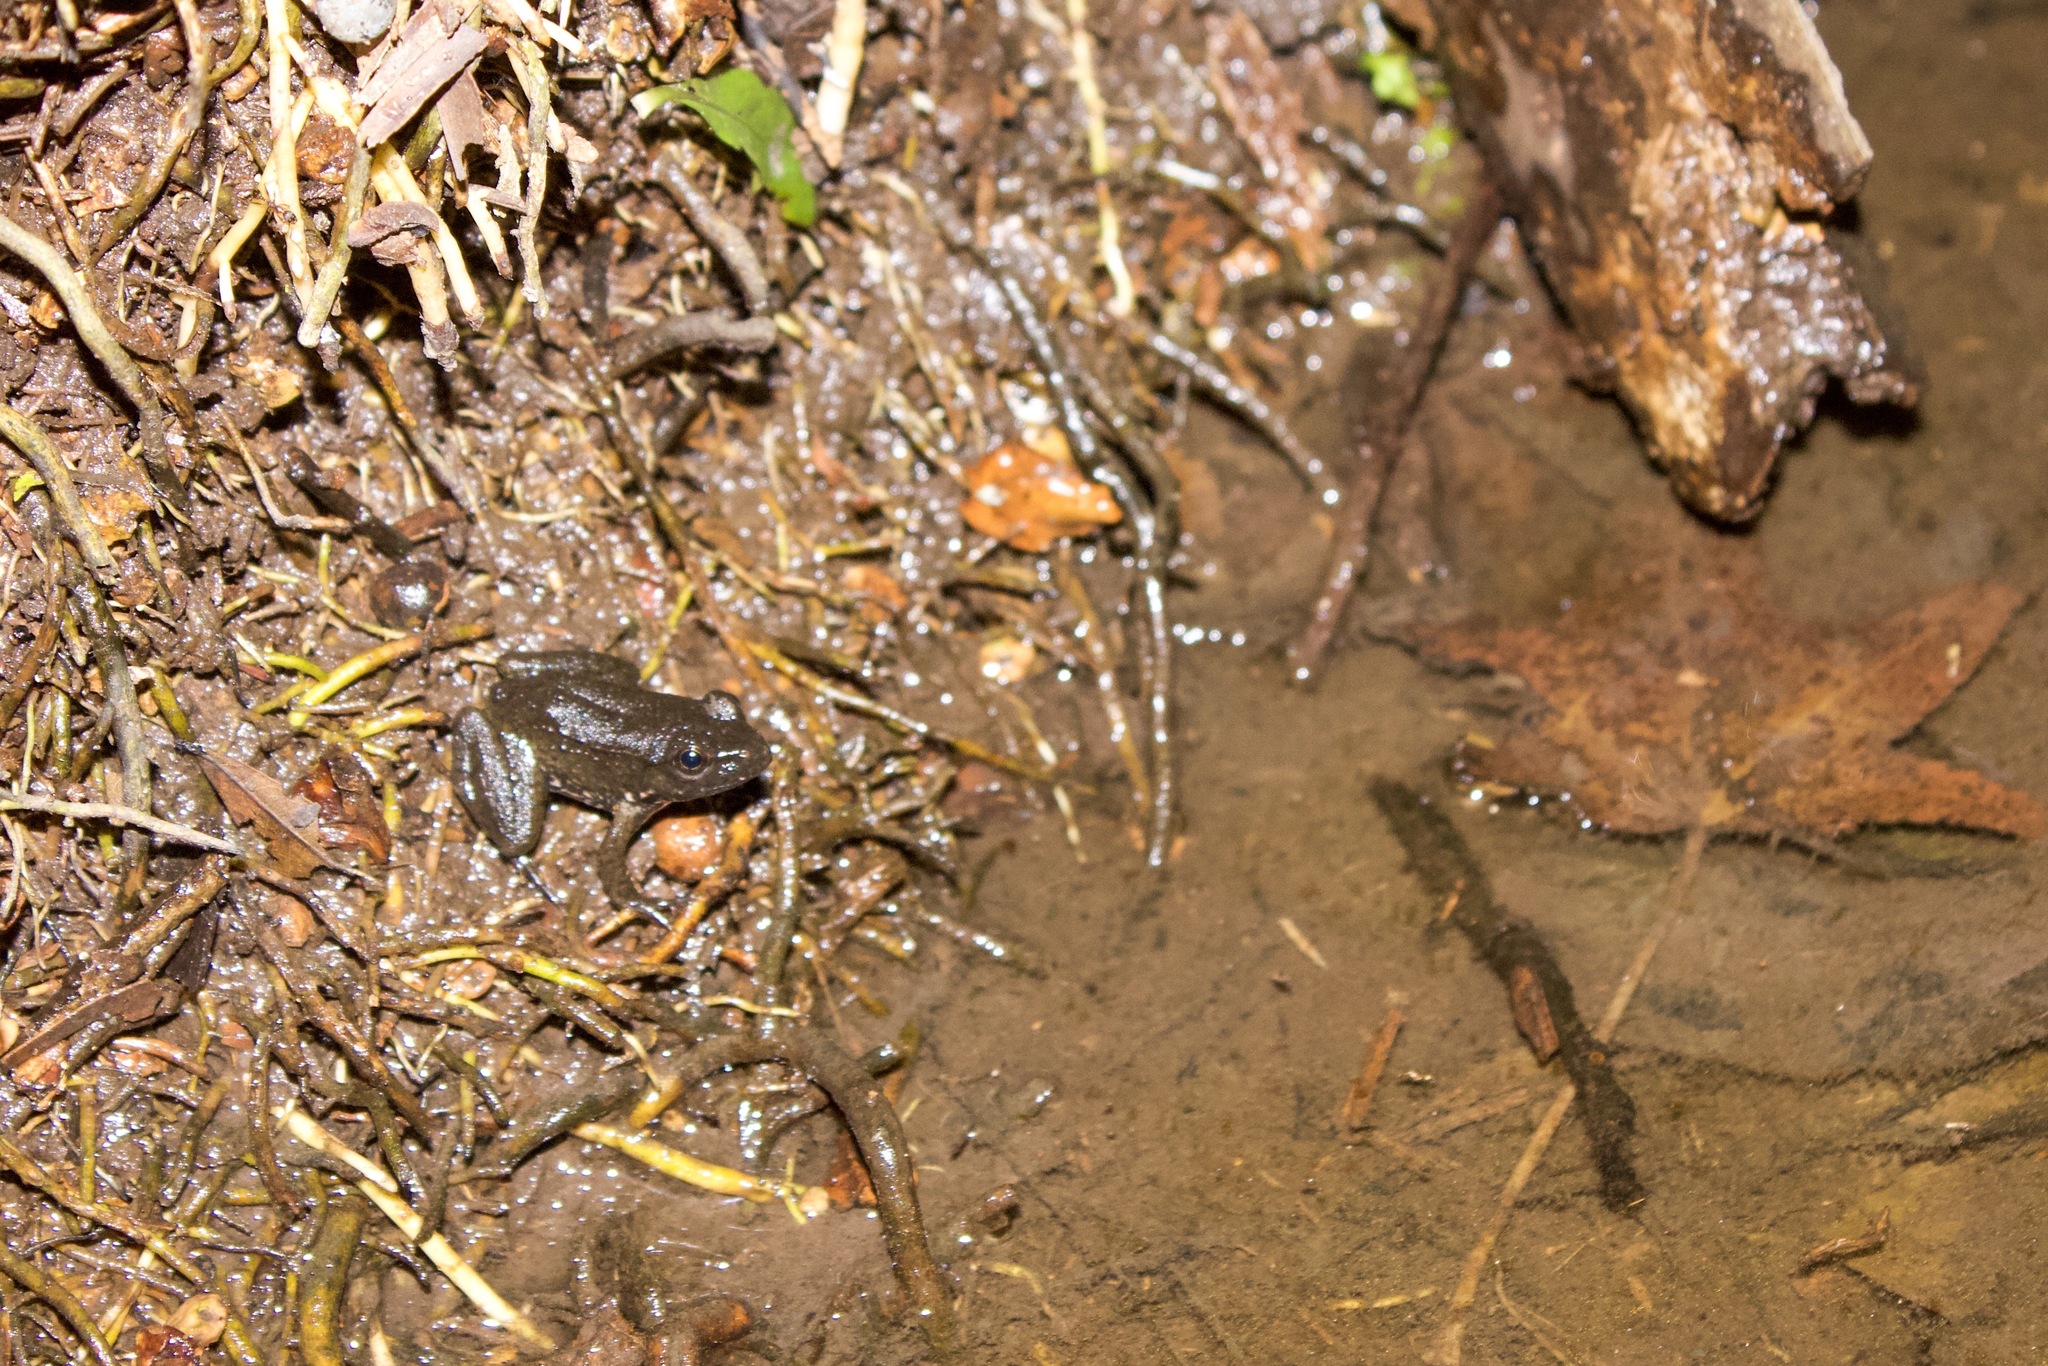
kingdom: Animalia
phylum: Chordata
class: Amphibia
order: Anura
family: Ranidae
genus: Lithobates
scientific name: Lithobates clamitans
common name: Green frog
